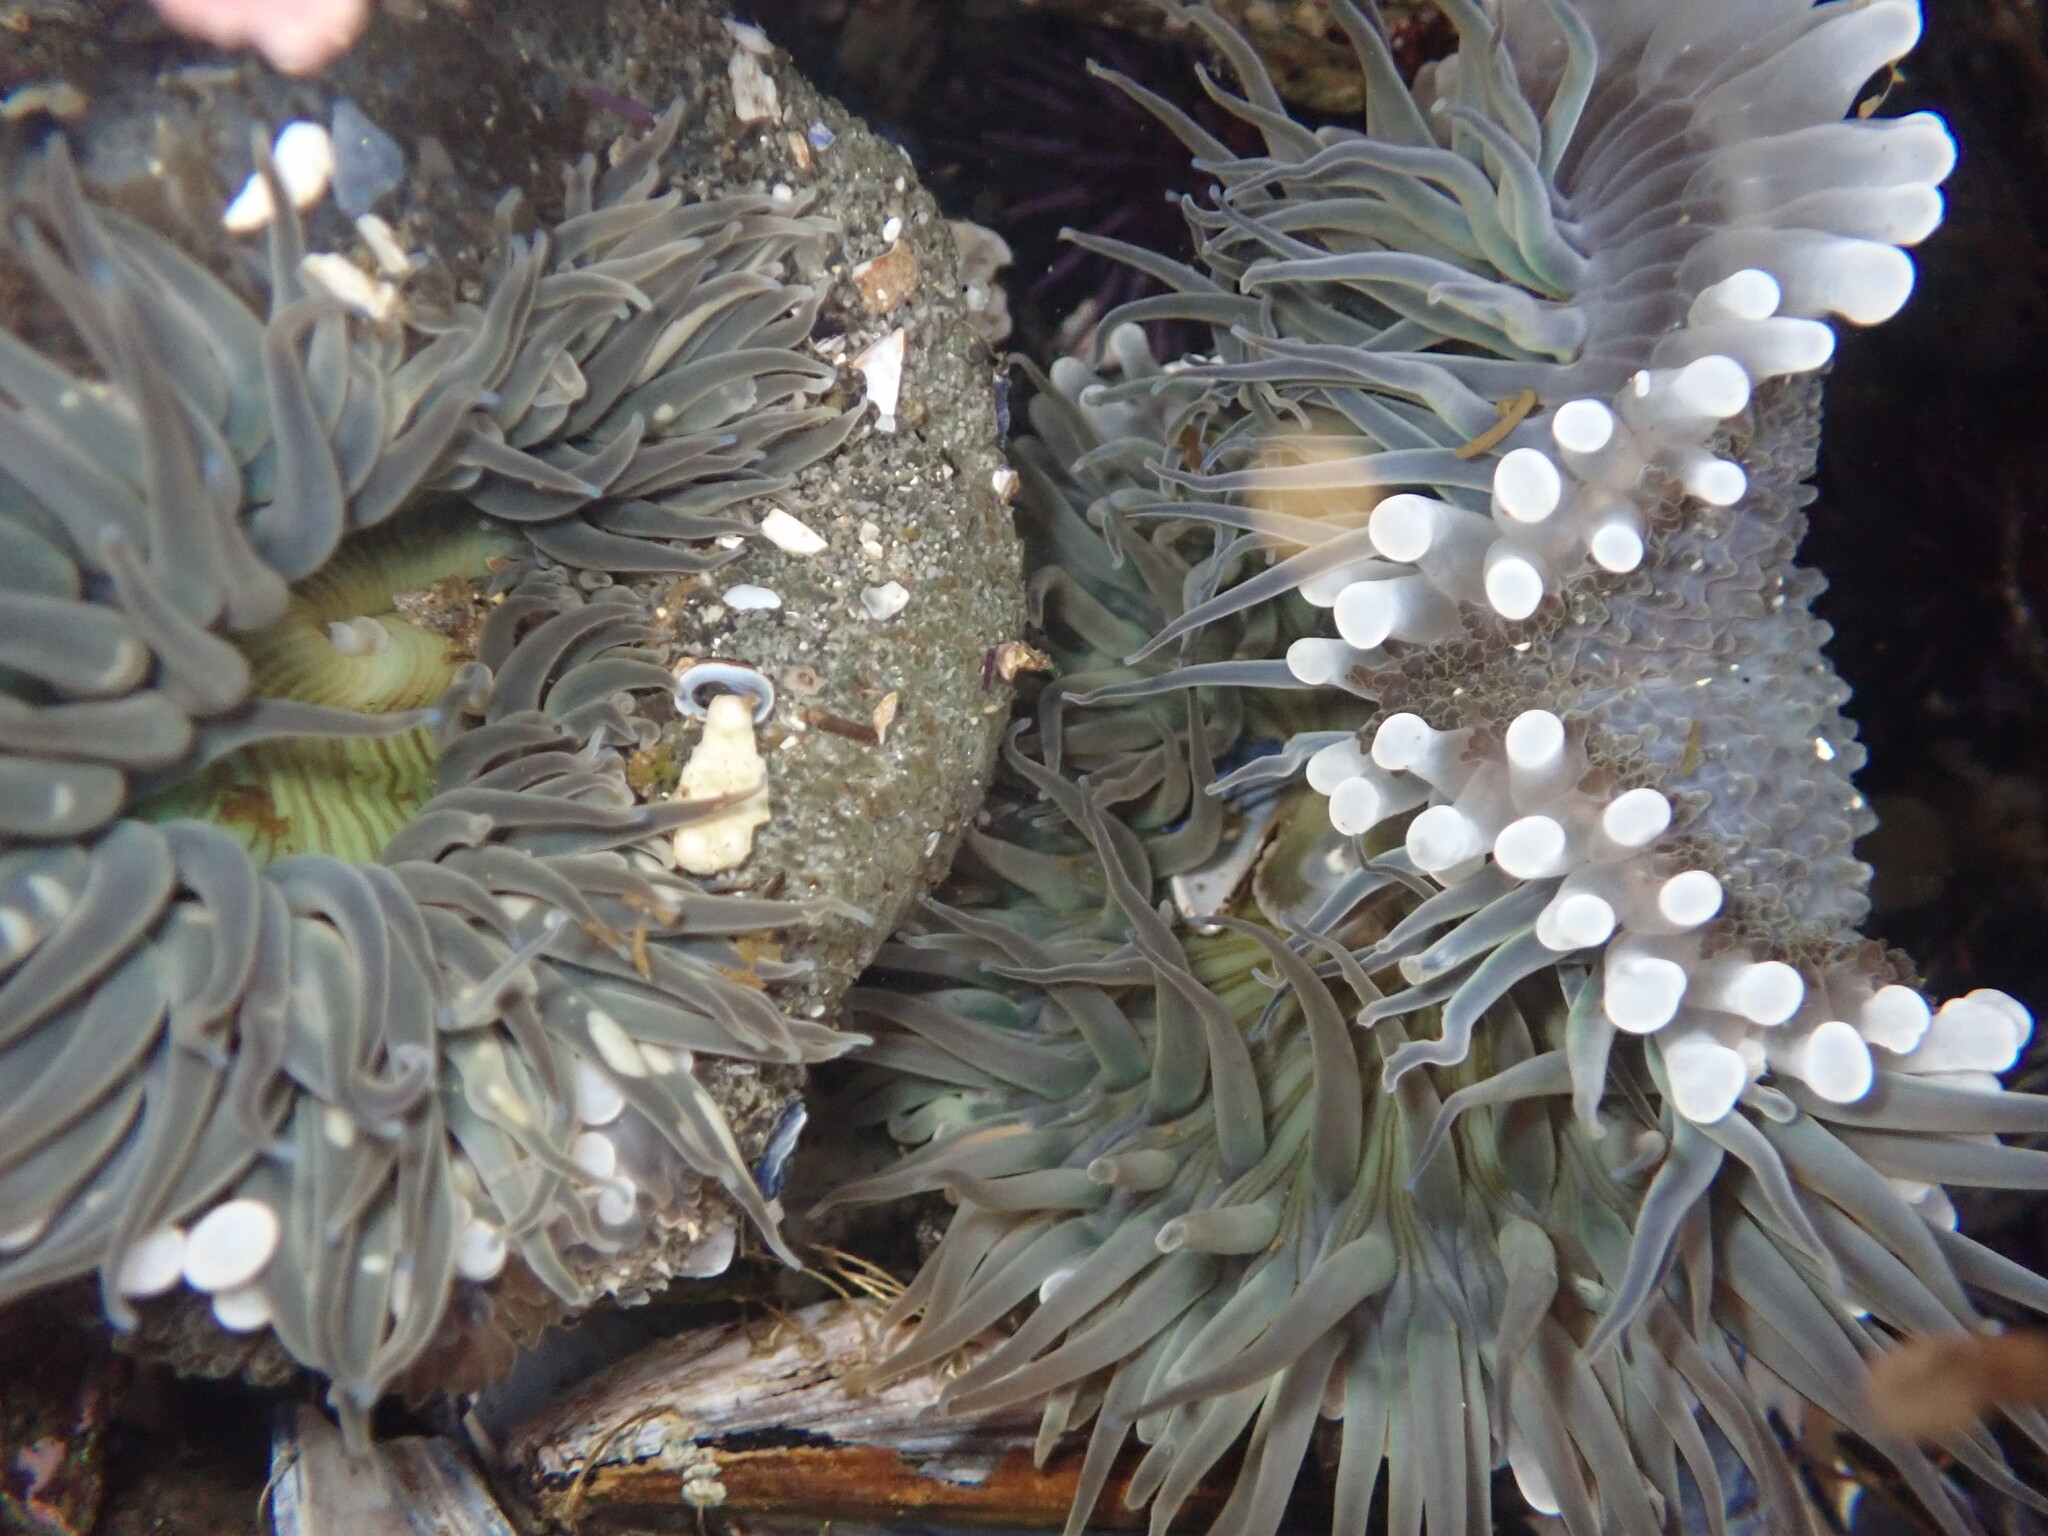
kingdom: Animalia
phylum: Cnidaria
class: Anthozoa
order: Actiniaria
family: Actiniidae
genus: Anthopleura
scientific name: Anthopleura sola
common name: Sun anemone
